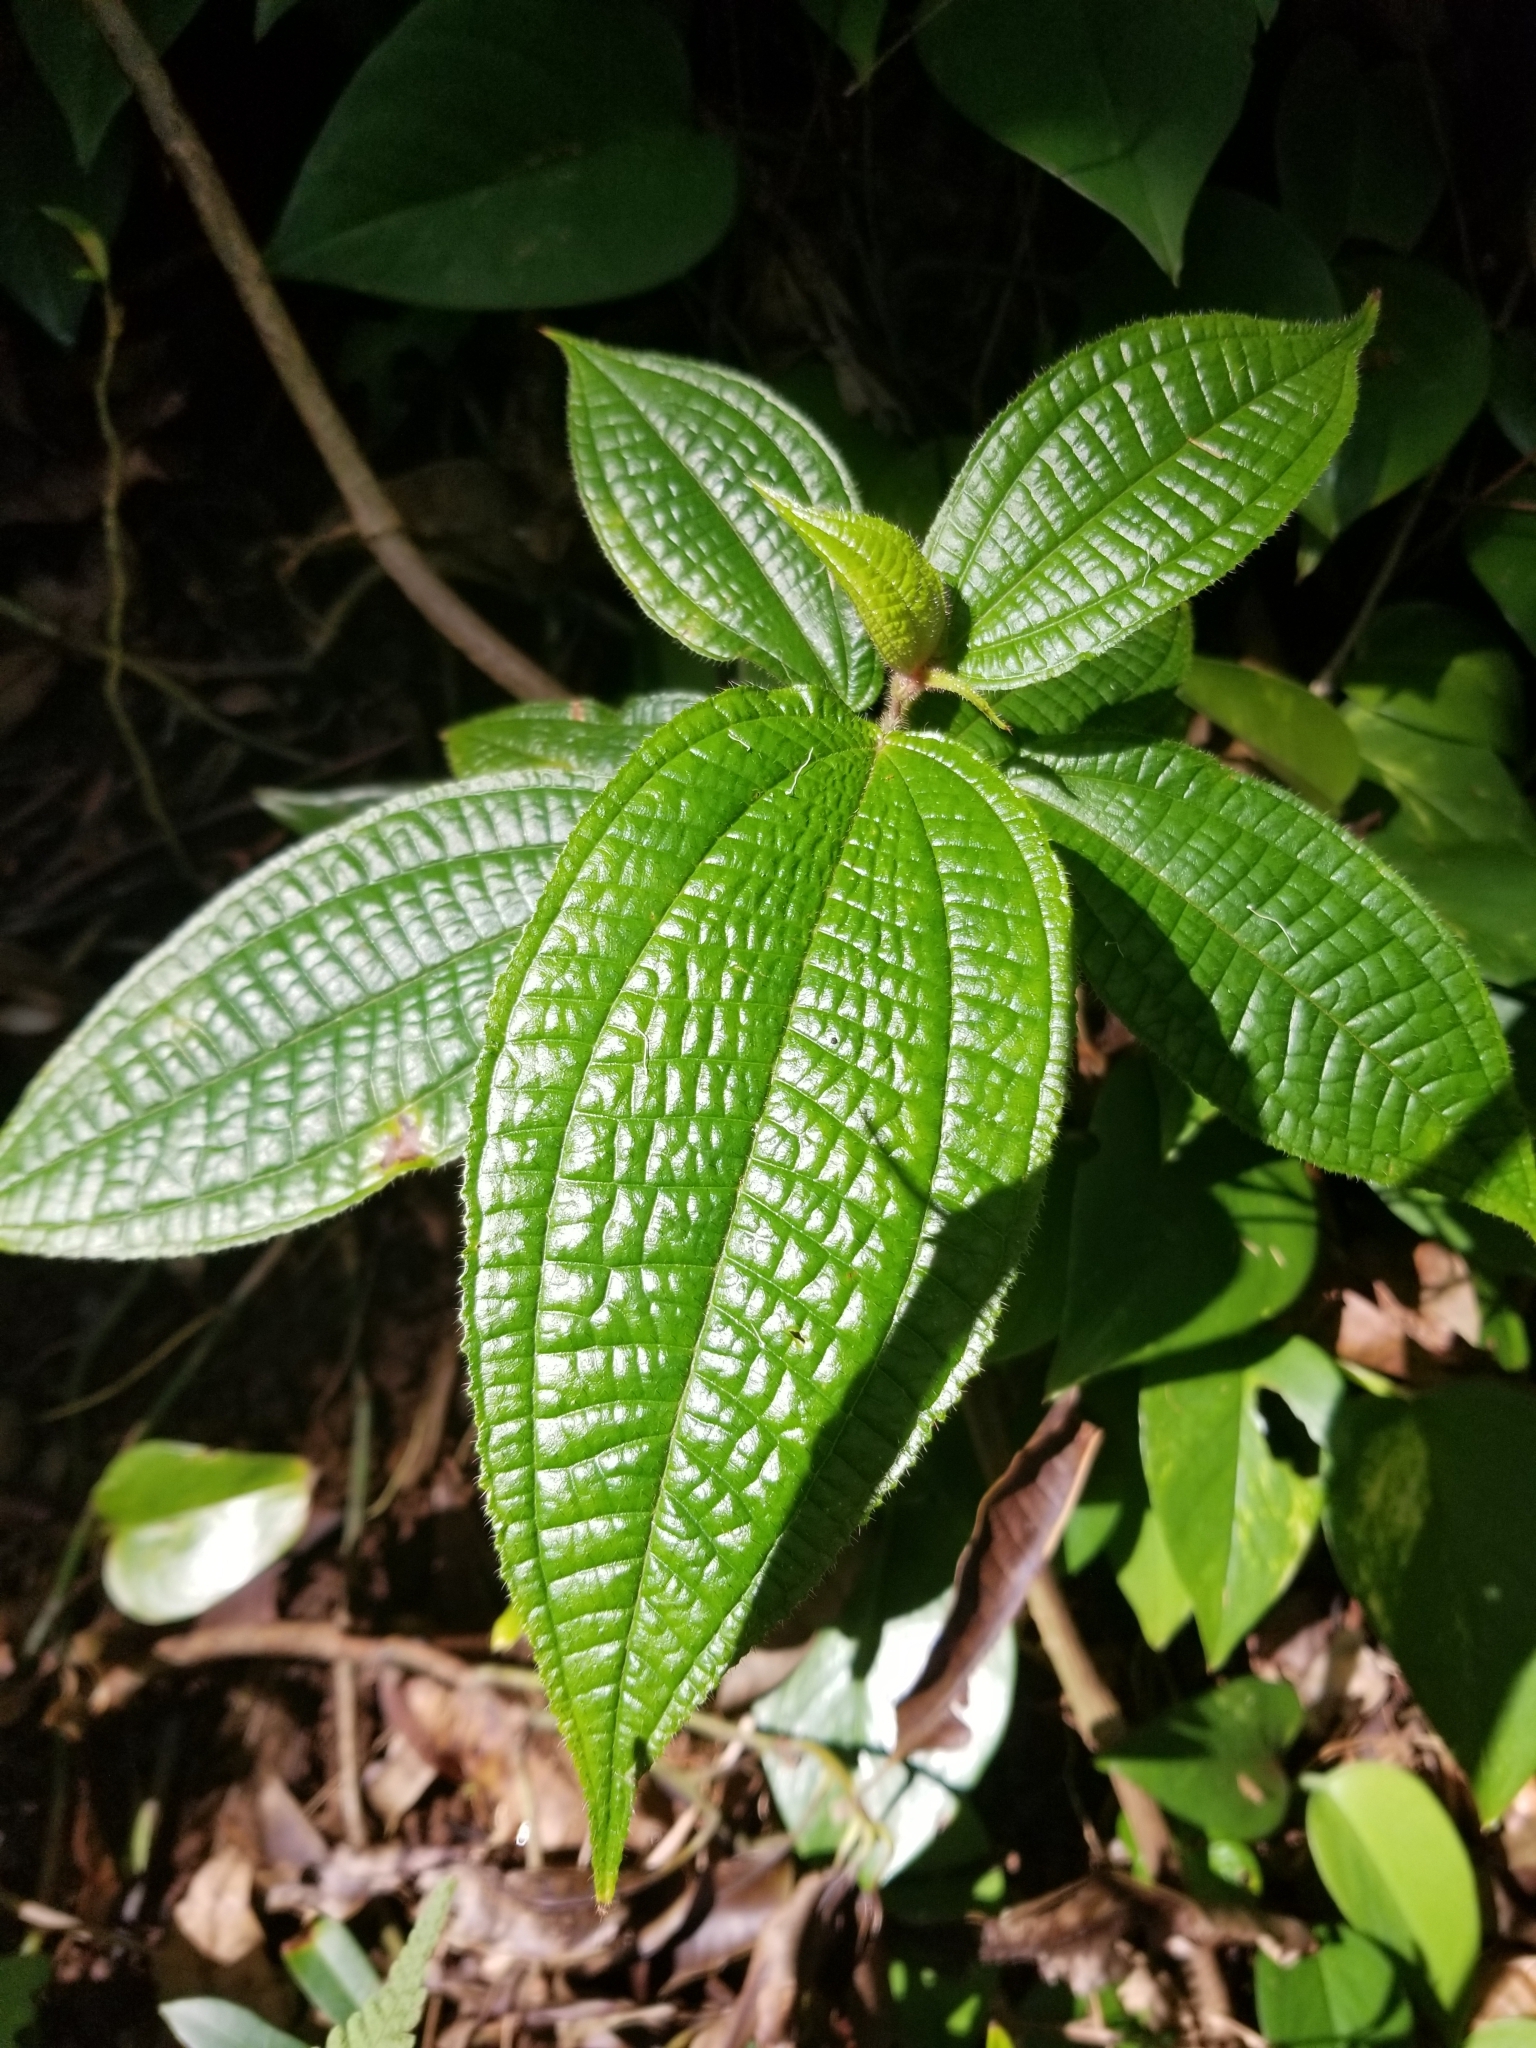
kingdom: Plantae
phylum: Tracheophyta
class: Magnoliopsida
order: Myrtales
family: Melastomataceae
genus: Miconia
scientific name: Miconia crenata
